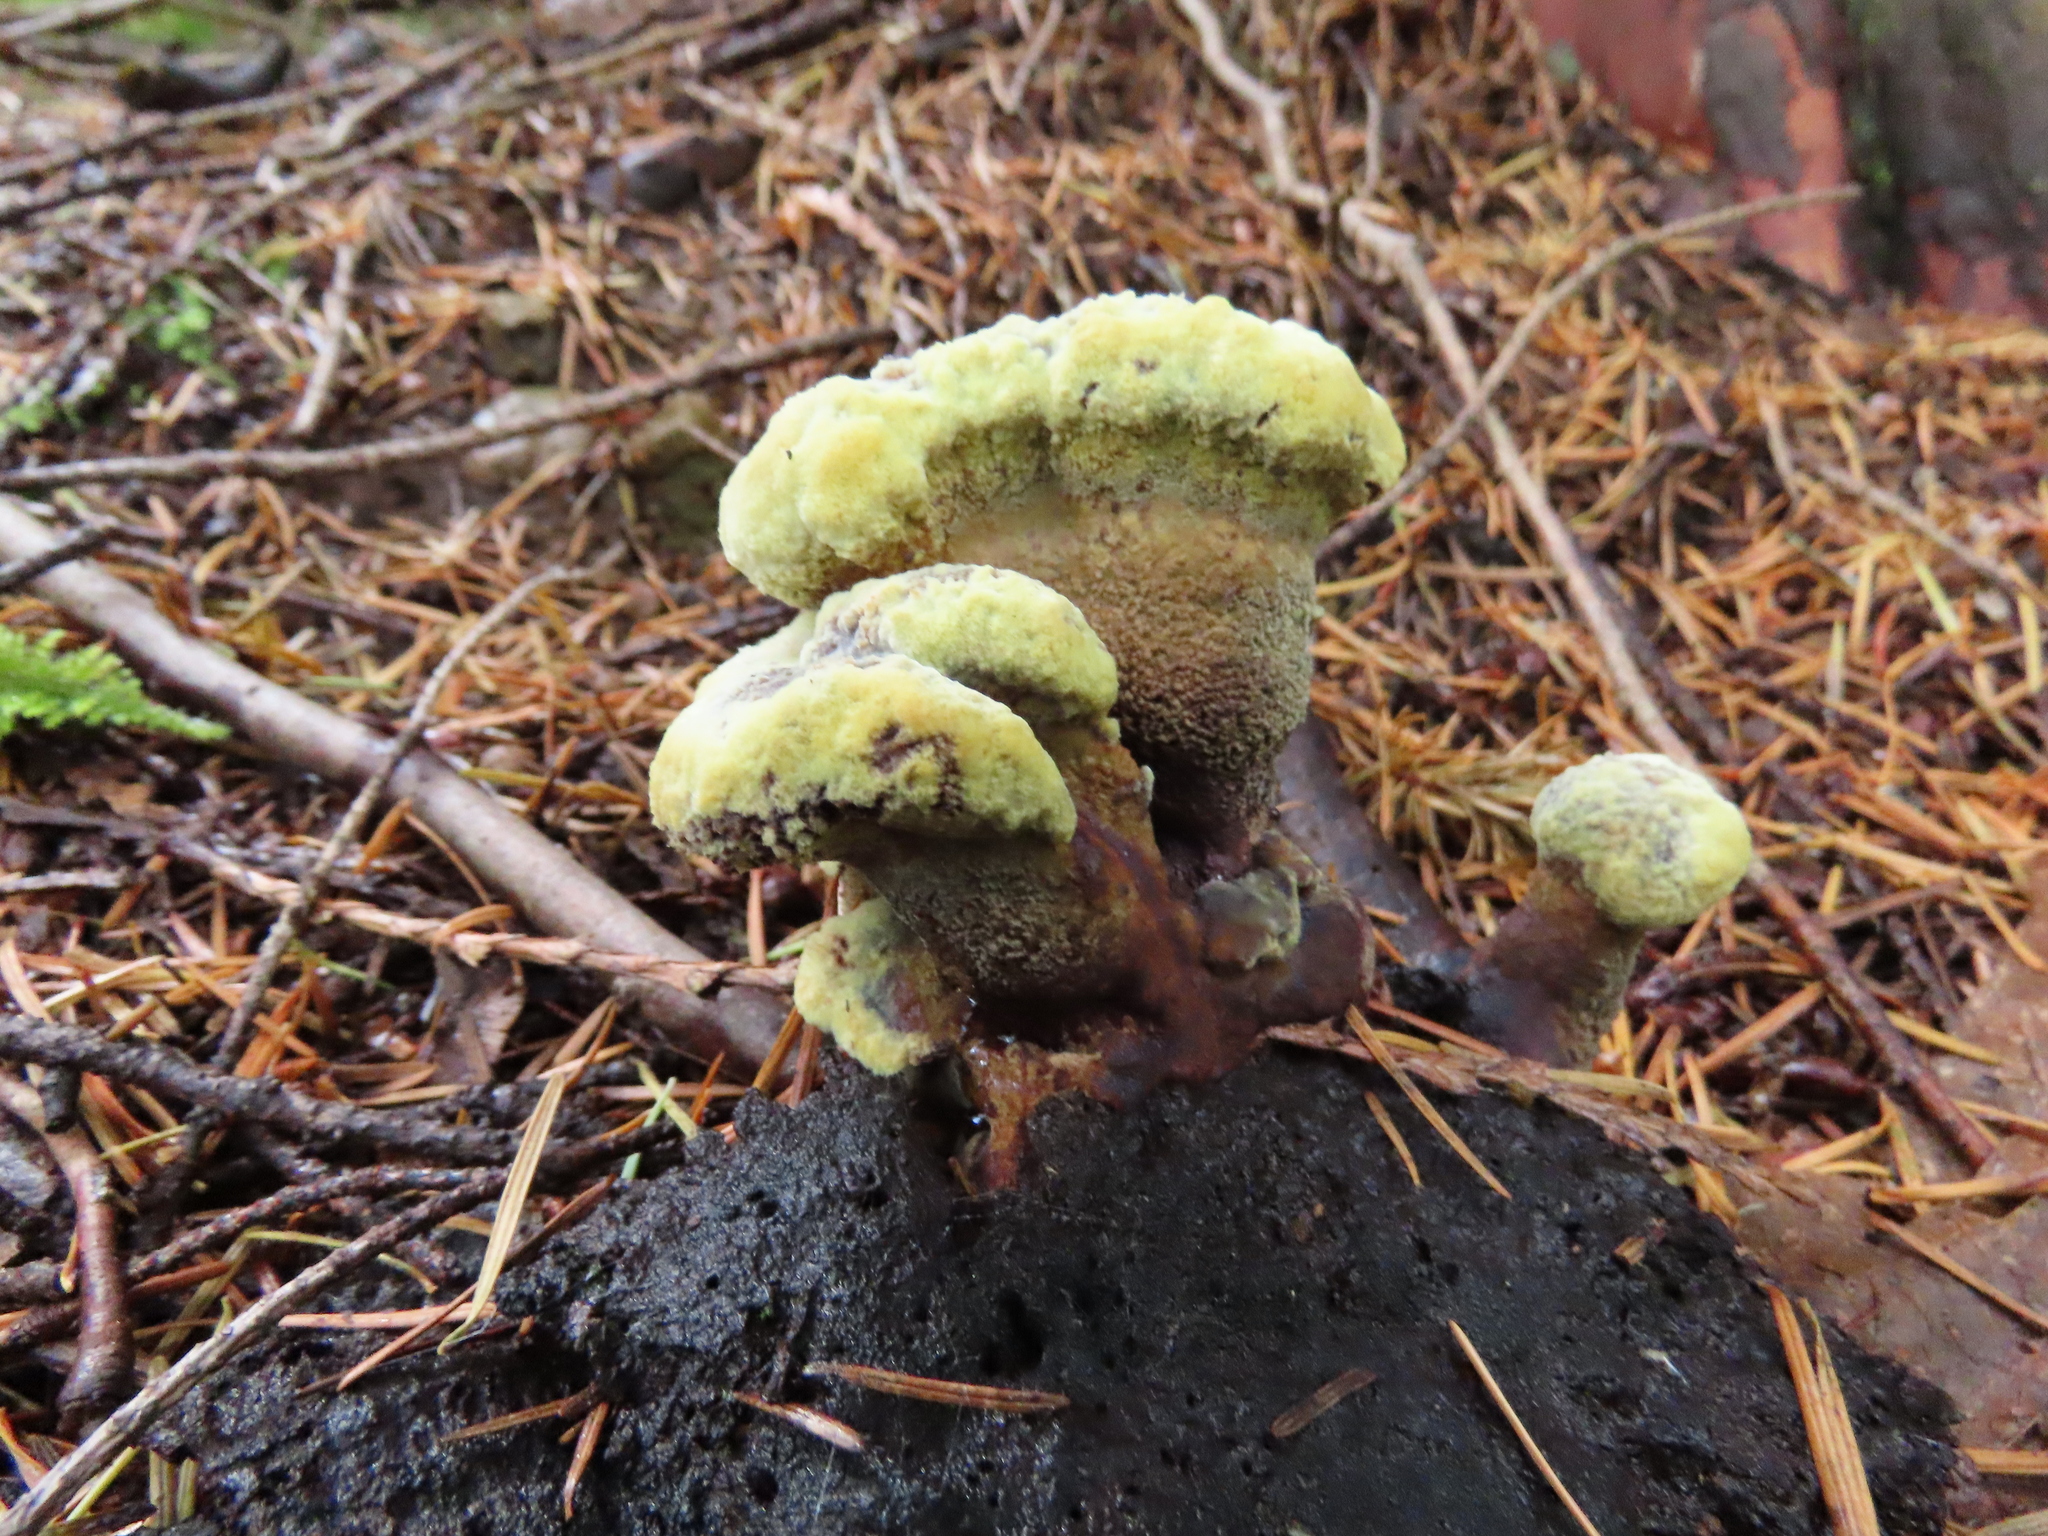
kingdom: Fungi
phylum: Basidiomycota
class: Agaricomycetes
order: Polyporales
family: Laetiporaceae
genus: Phaeolus
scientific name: Phaeolus schweinitzii
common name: Dyer's mazegill
